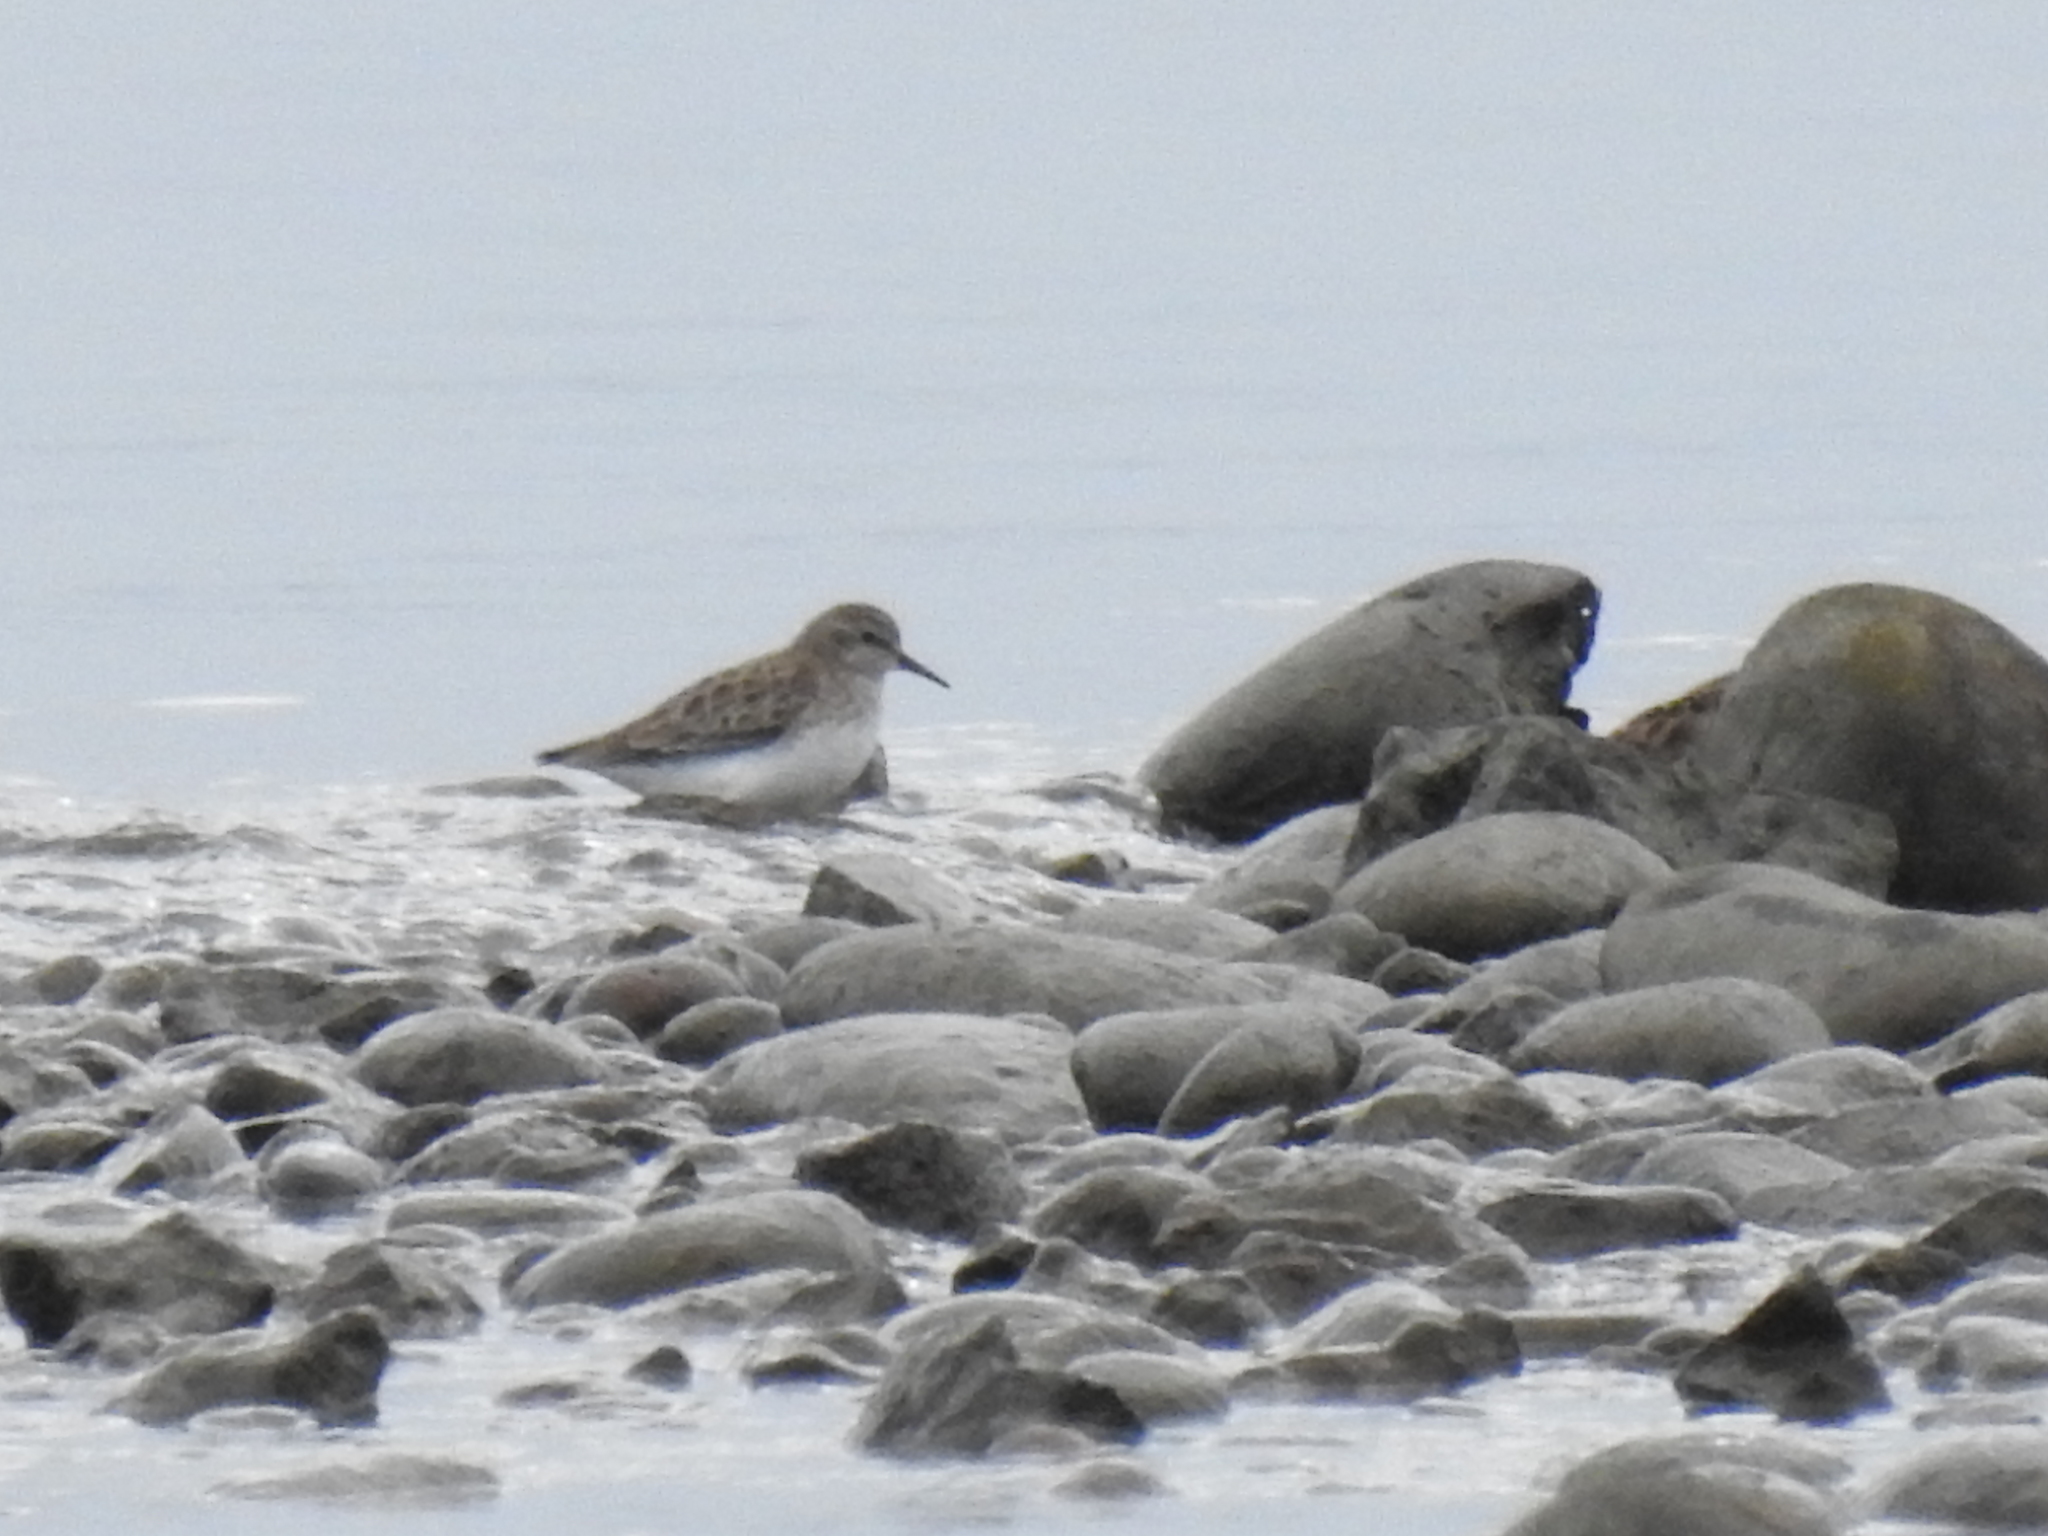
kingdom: Animalia
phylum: Chordata
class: Aves
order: Charadriiformes
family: Scolopacidae
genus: Calidris
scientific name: Calidris minutilla
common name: Least sandpiper
